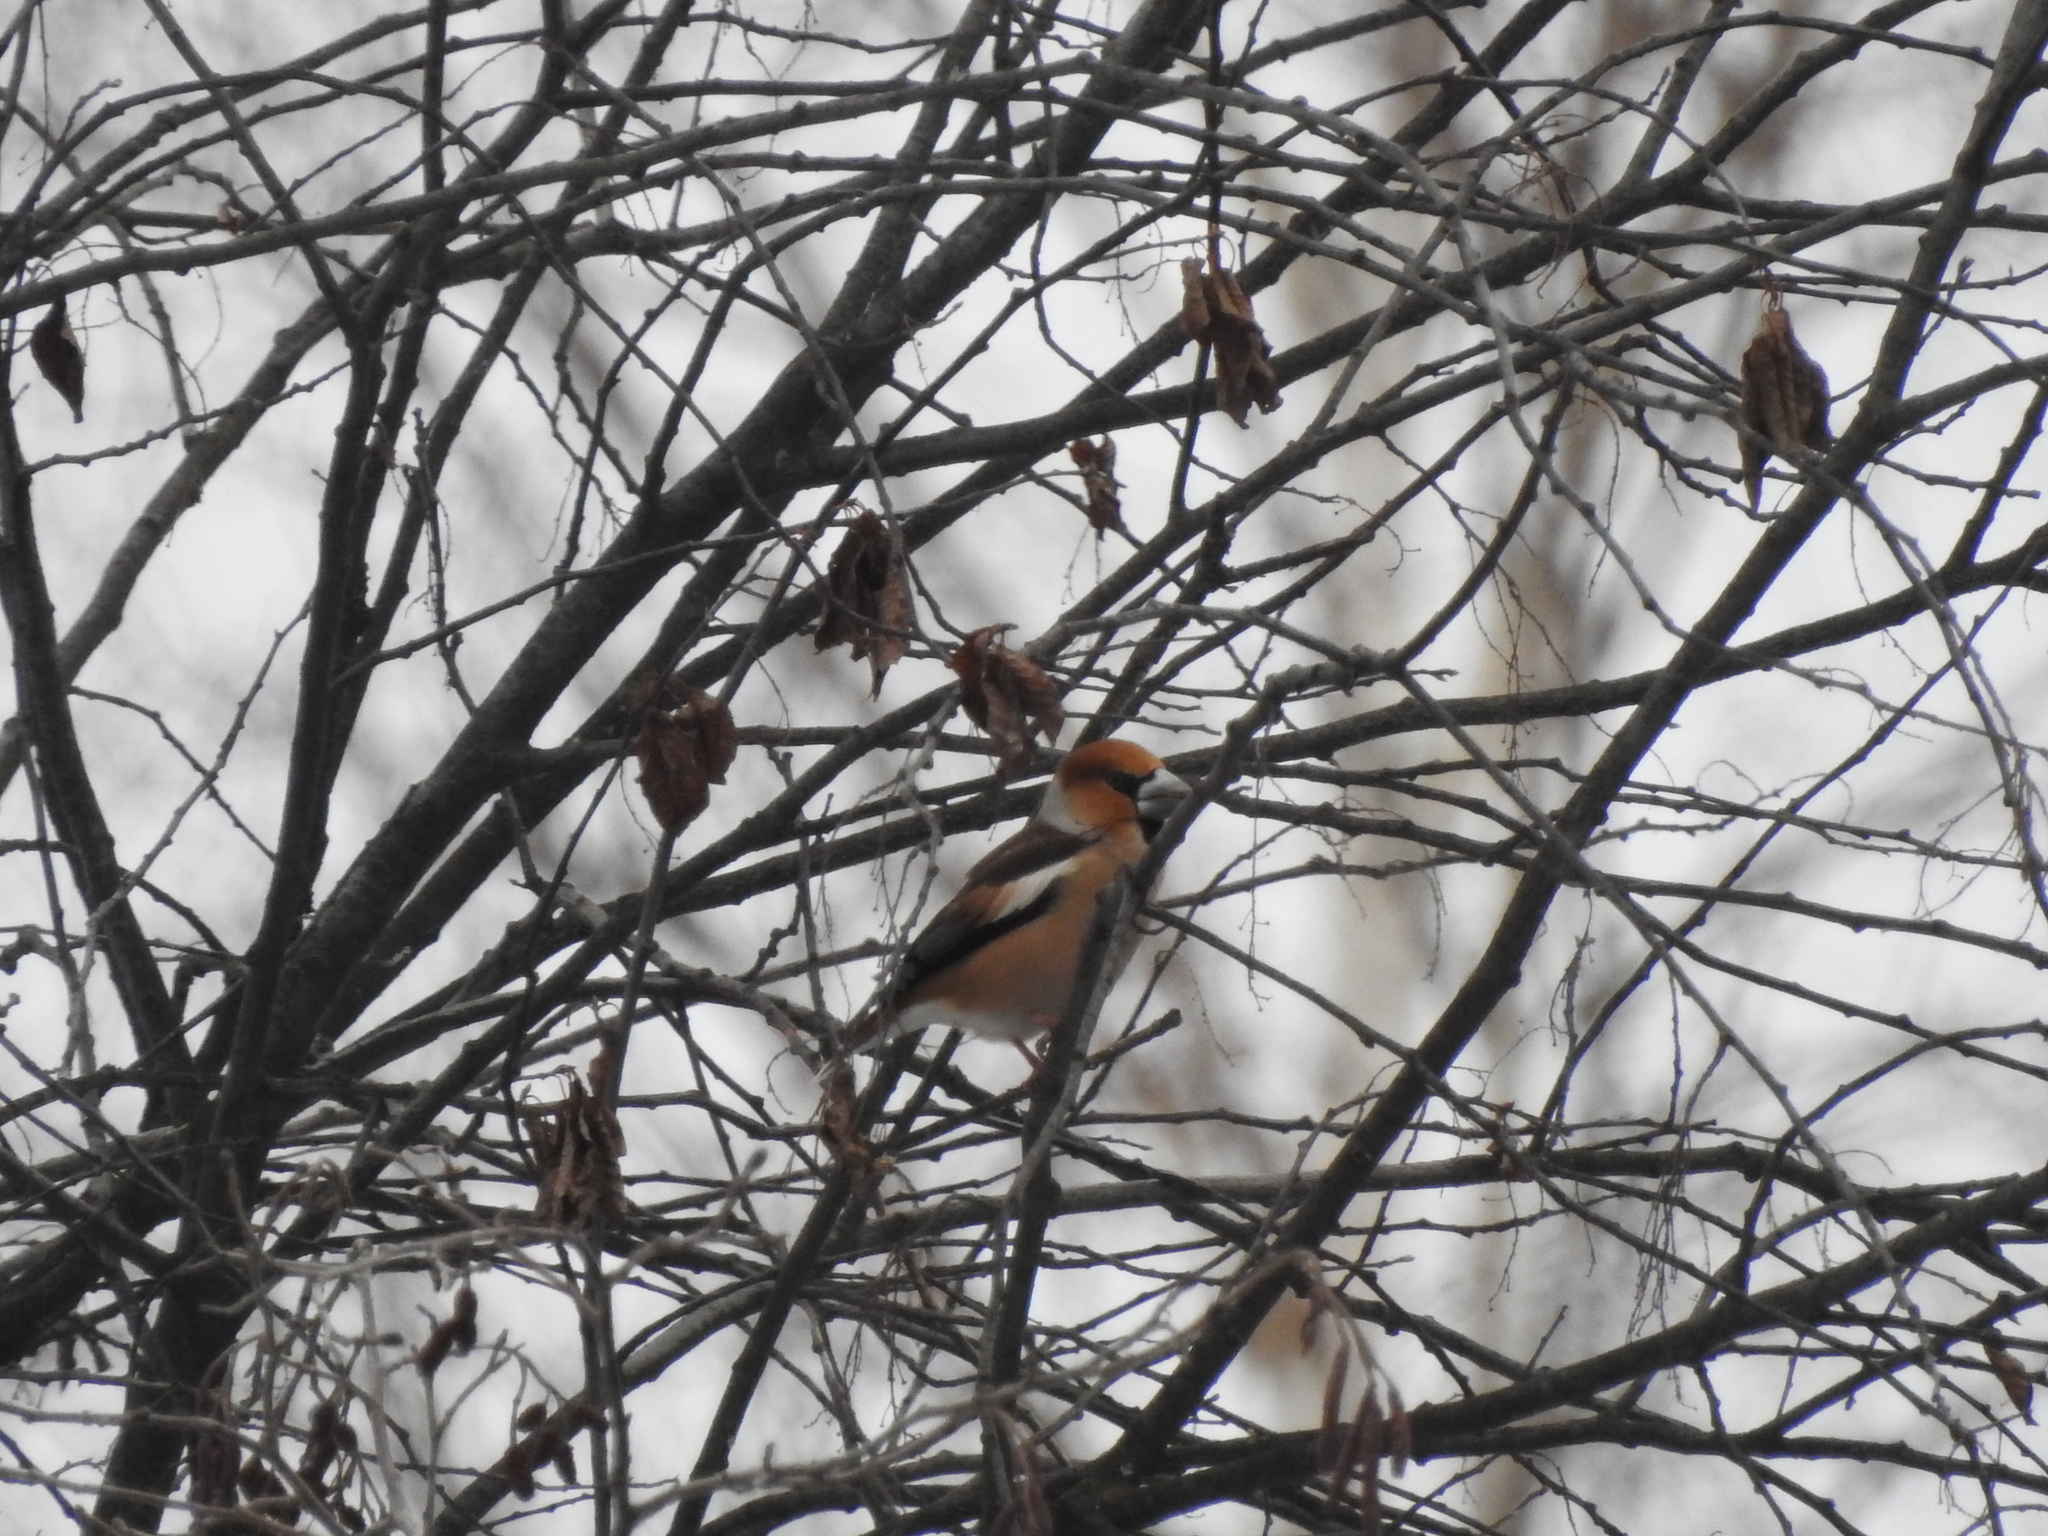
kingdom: Animalia
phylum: Chordata
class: Aves
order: Passeriformes
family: Fringillidae
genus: Coccothraustes
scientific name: Coccothraustes coccothraustes
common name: Hawfinch
